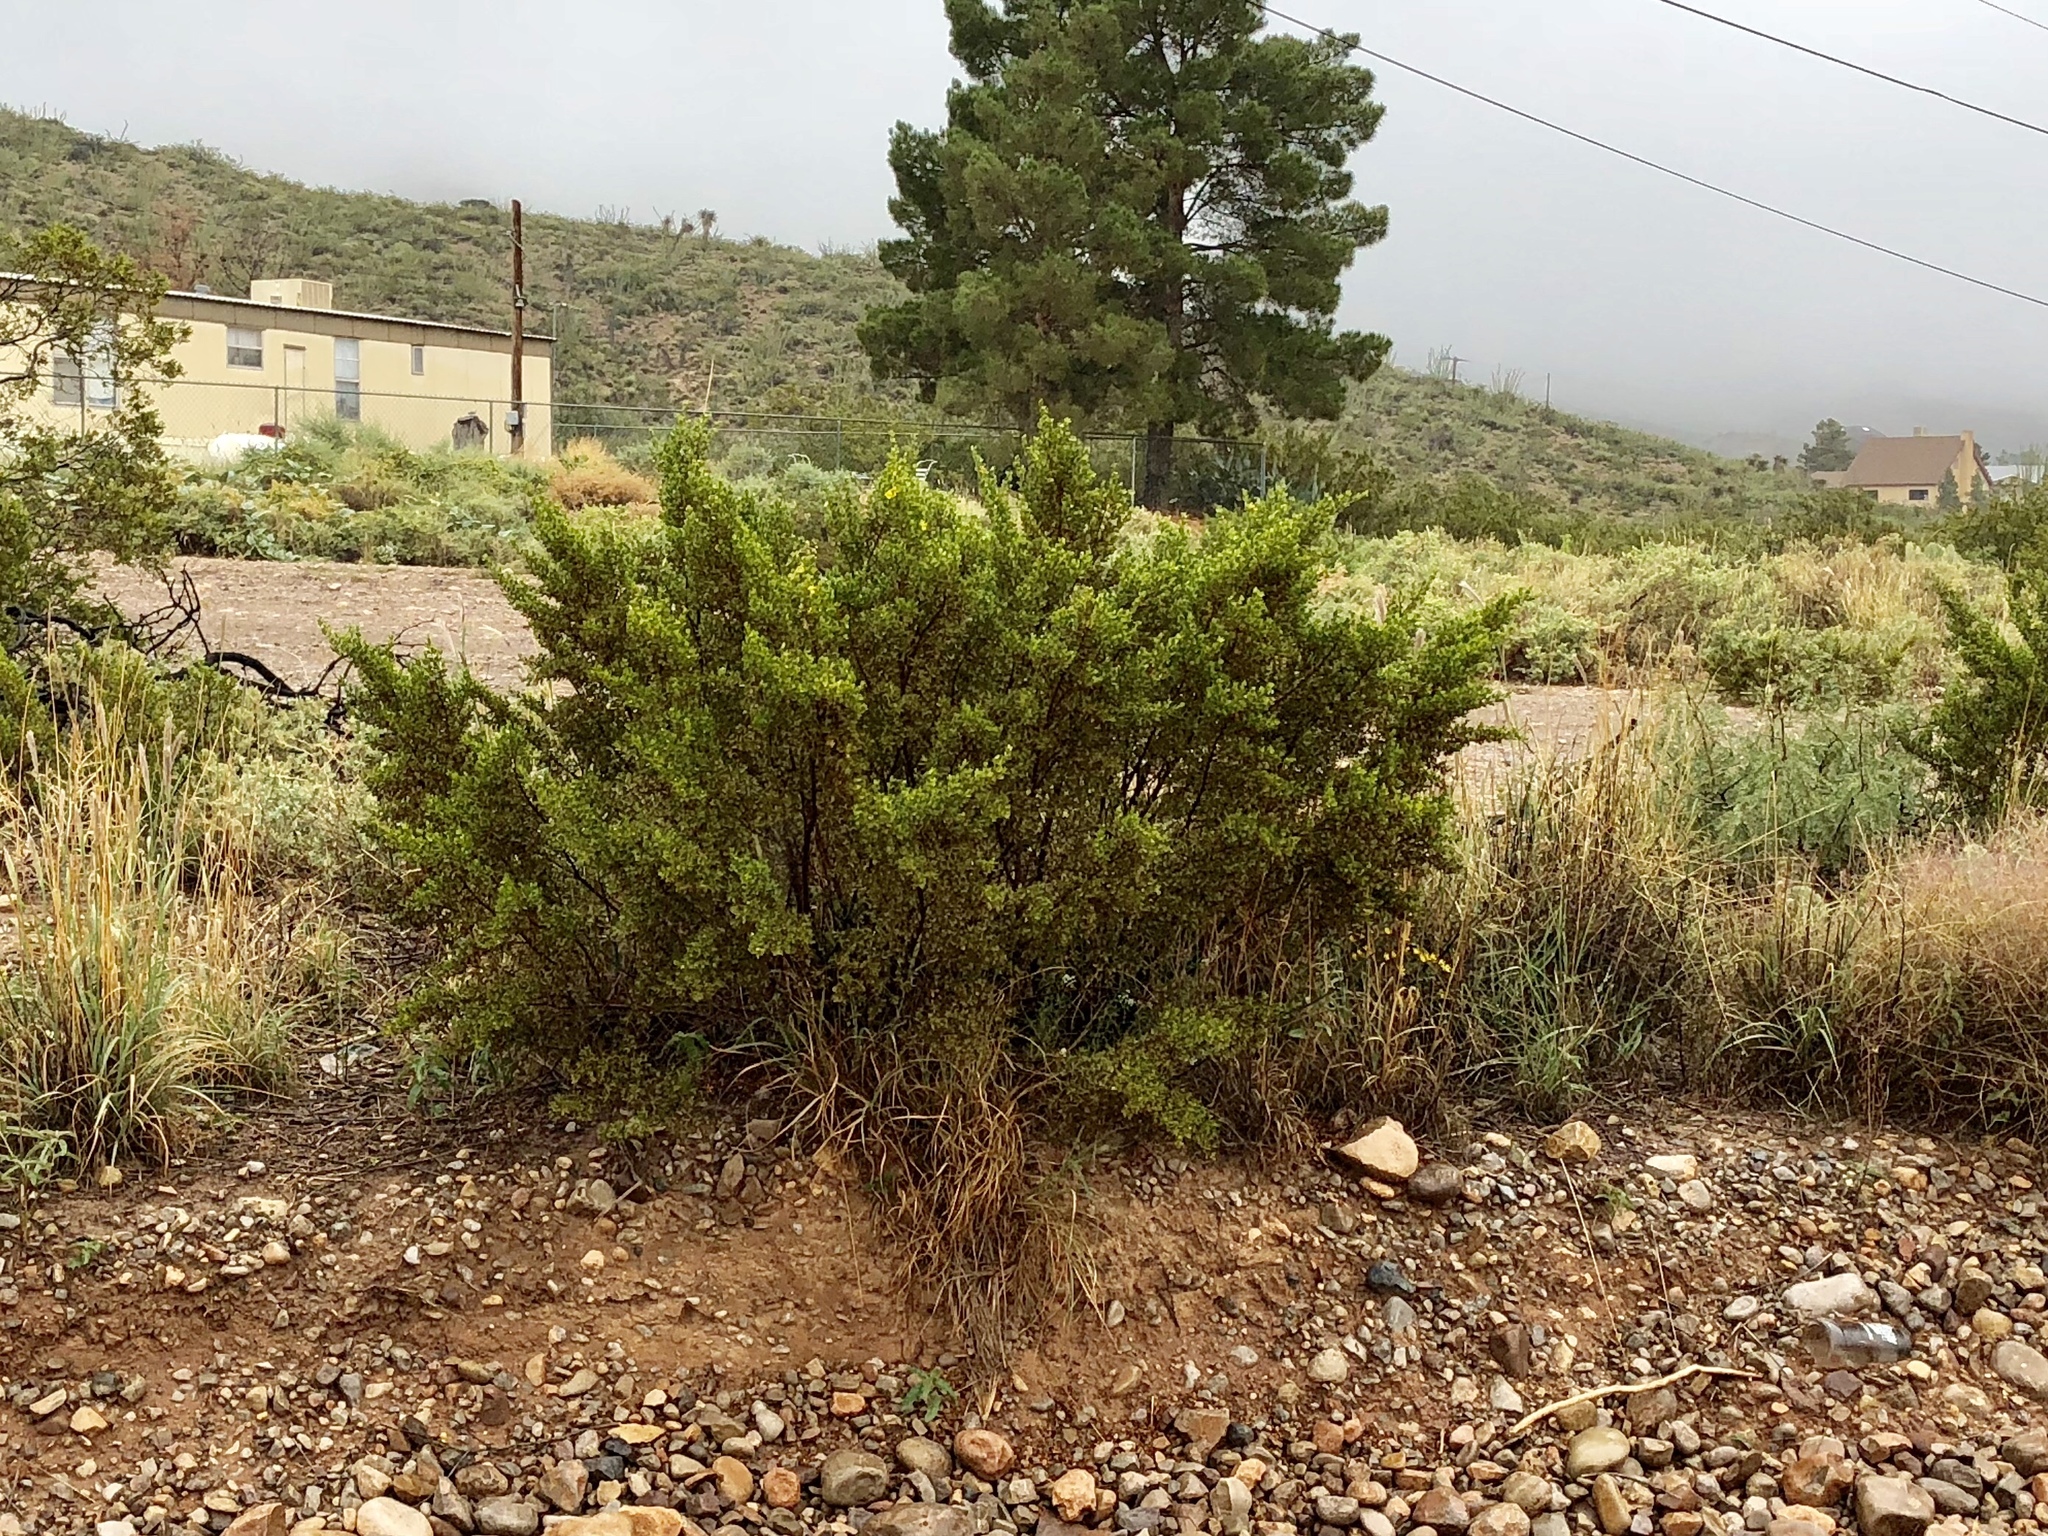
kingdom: Plantae
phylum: Tracheophyta
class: Magnoliopsida
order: Zygophyllales
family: Zygophyllaceae
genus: Larrea
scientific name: Larrea tridentata
